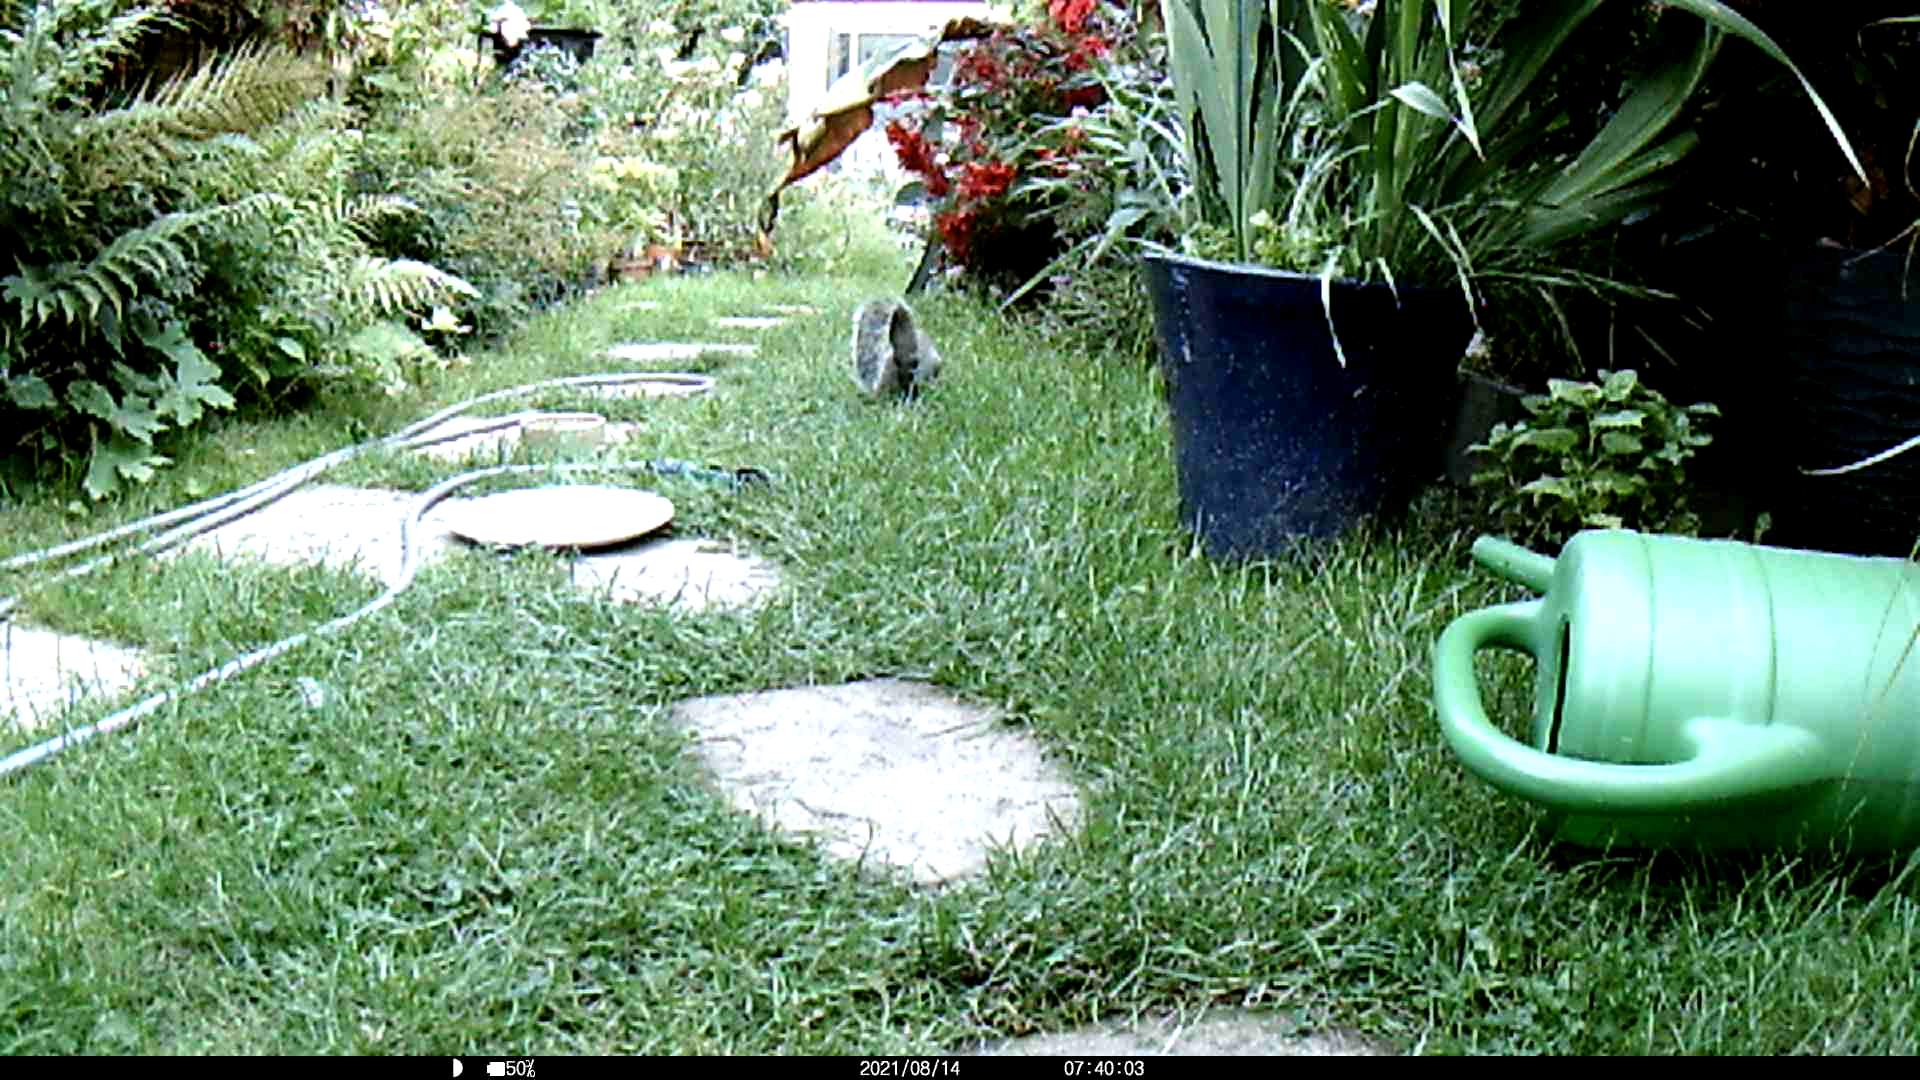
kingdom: Animalia
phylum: Chordata
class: Mammalia
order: Rodentia
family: Sciuridae
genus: Sciurus
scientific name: Sciurus carolinensis
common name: Eastern gray squirrel
